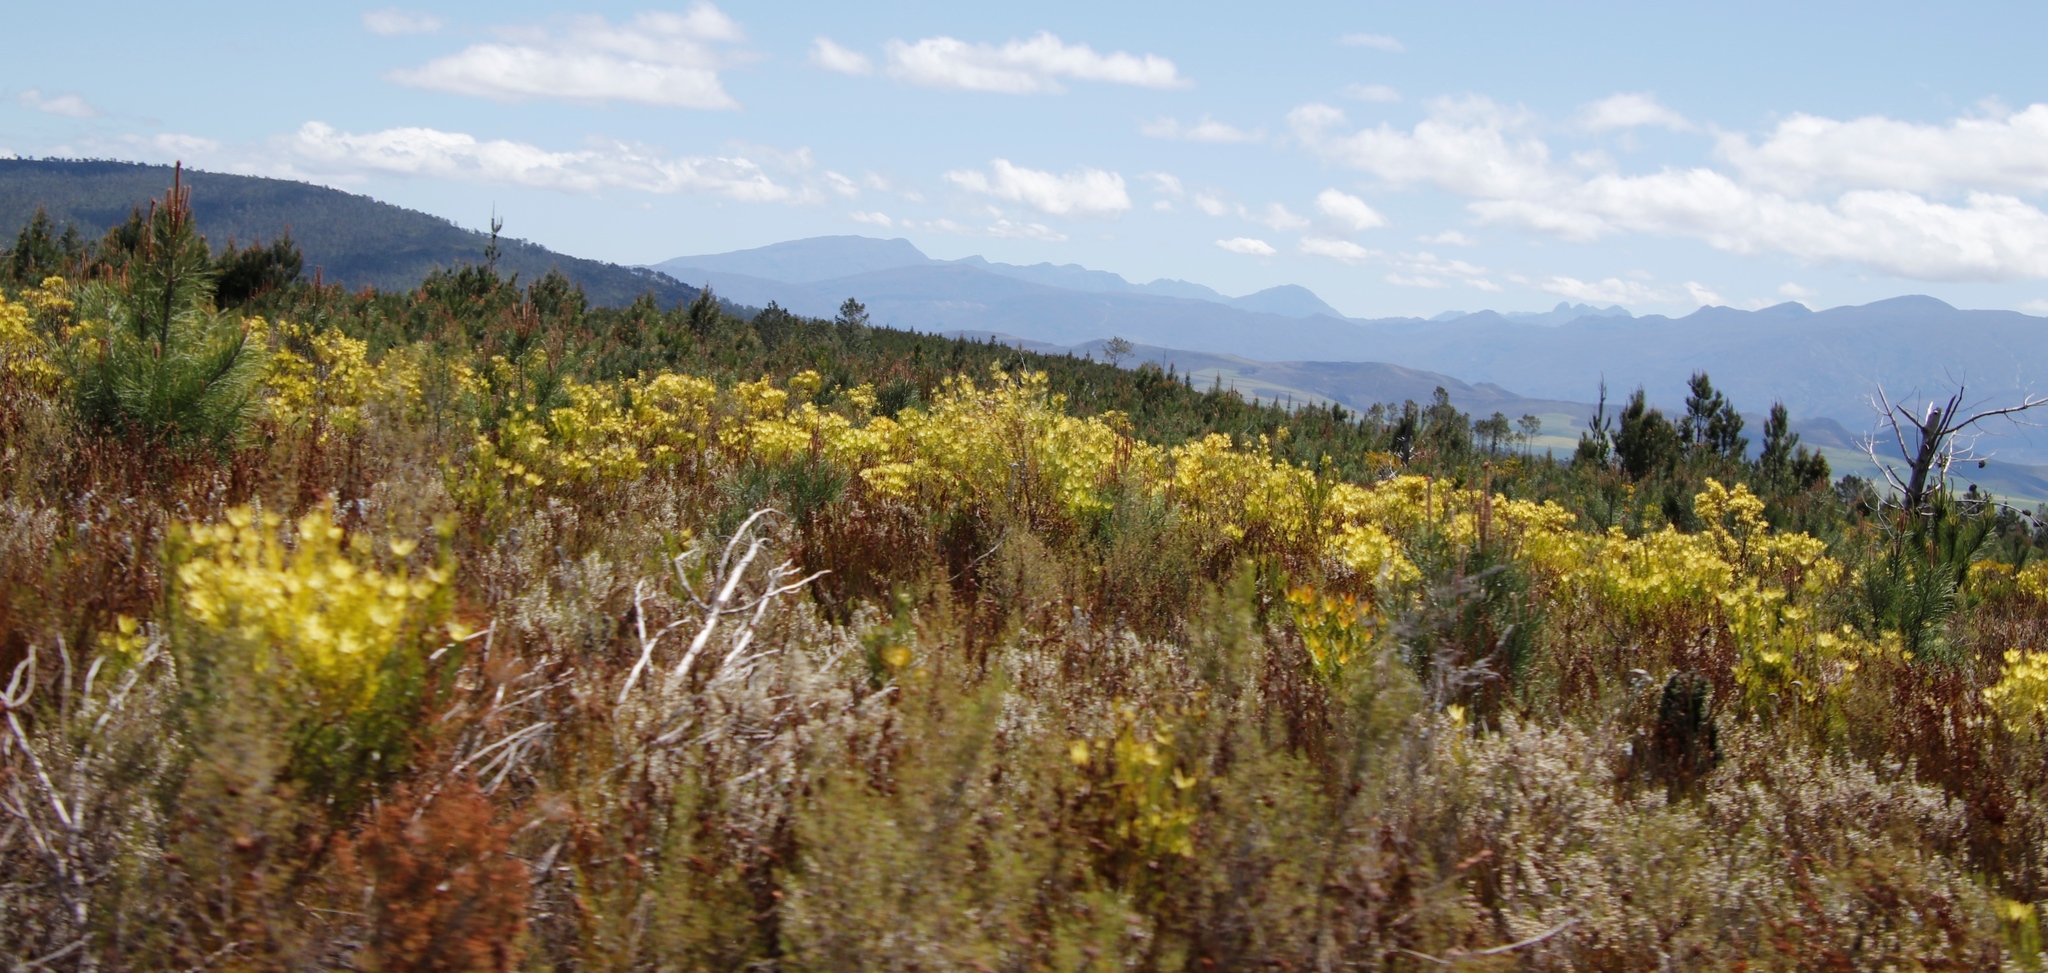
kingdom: Plantae
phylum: Tracheophyta
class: Magnoliopsida
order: Proteales
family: Proteaceae
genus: Leucadendron
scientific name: Leucadendron xanthoconus
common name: Sickle-leaf conebush
